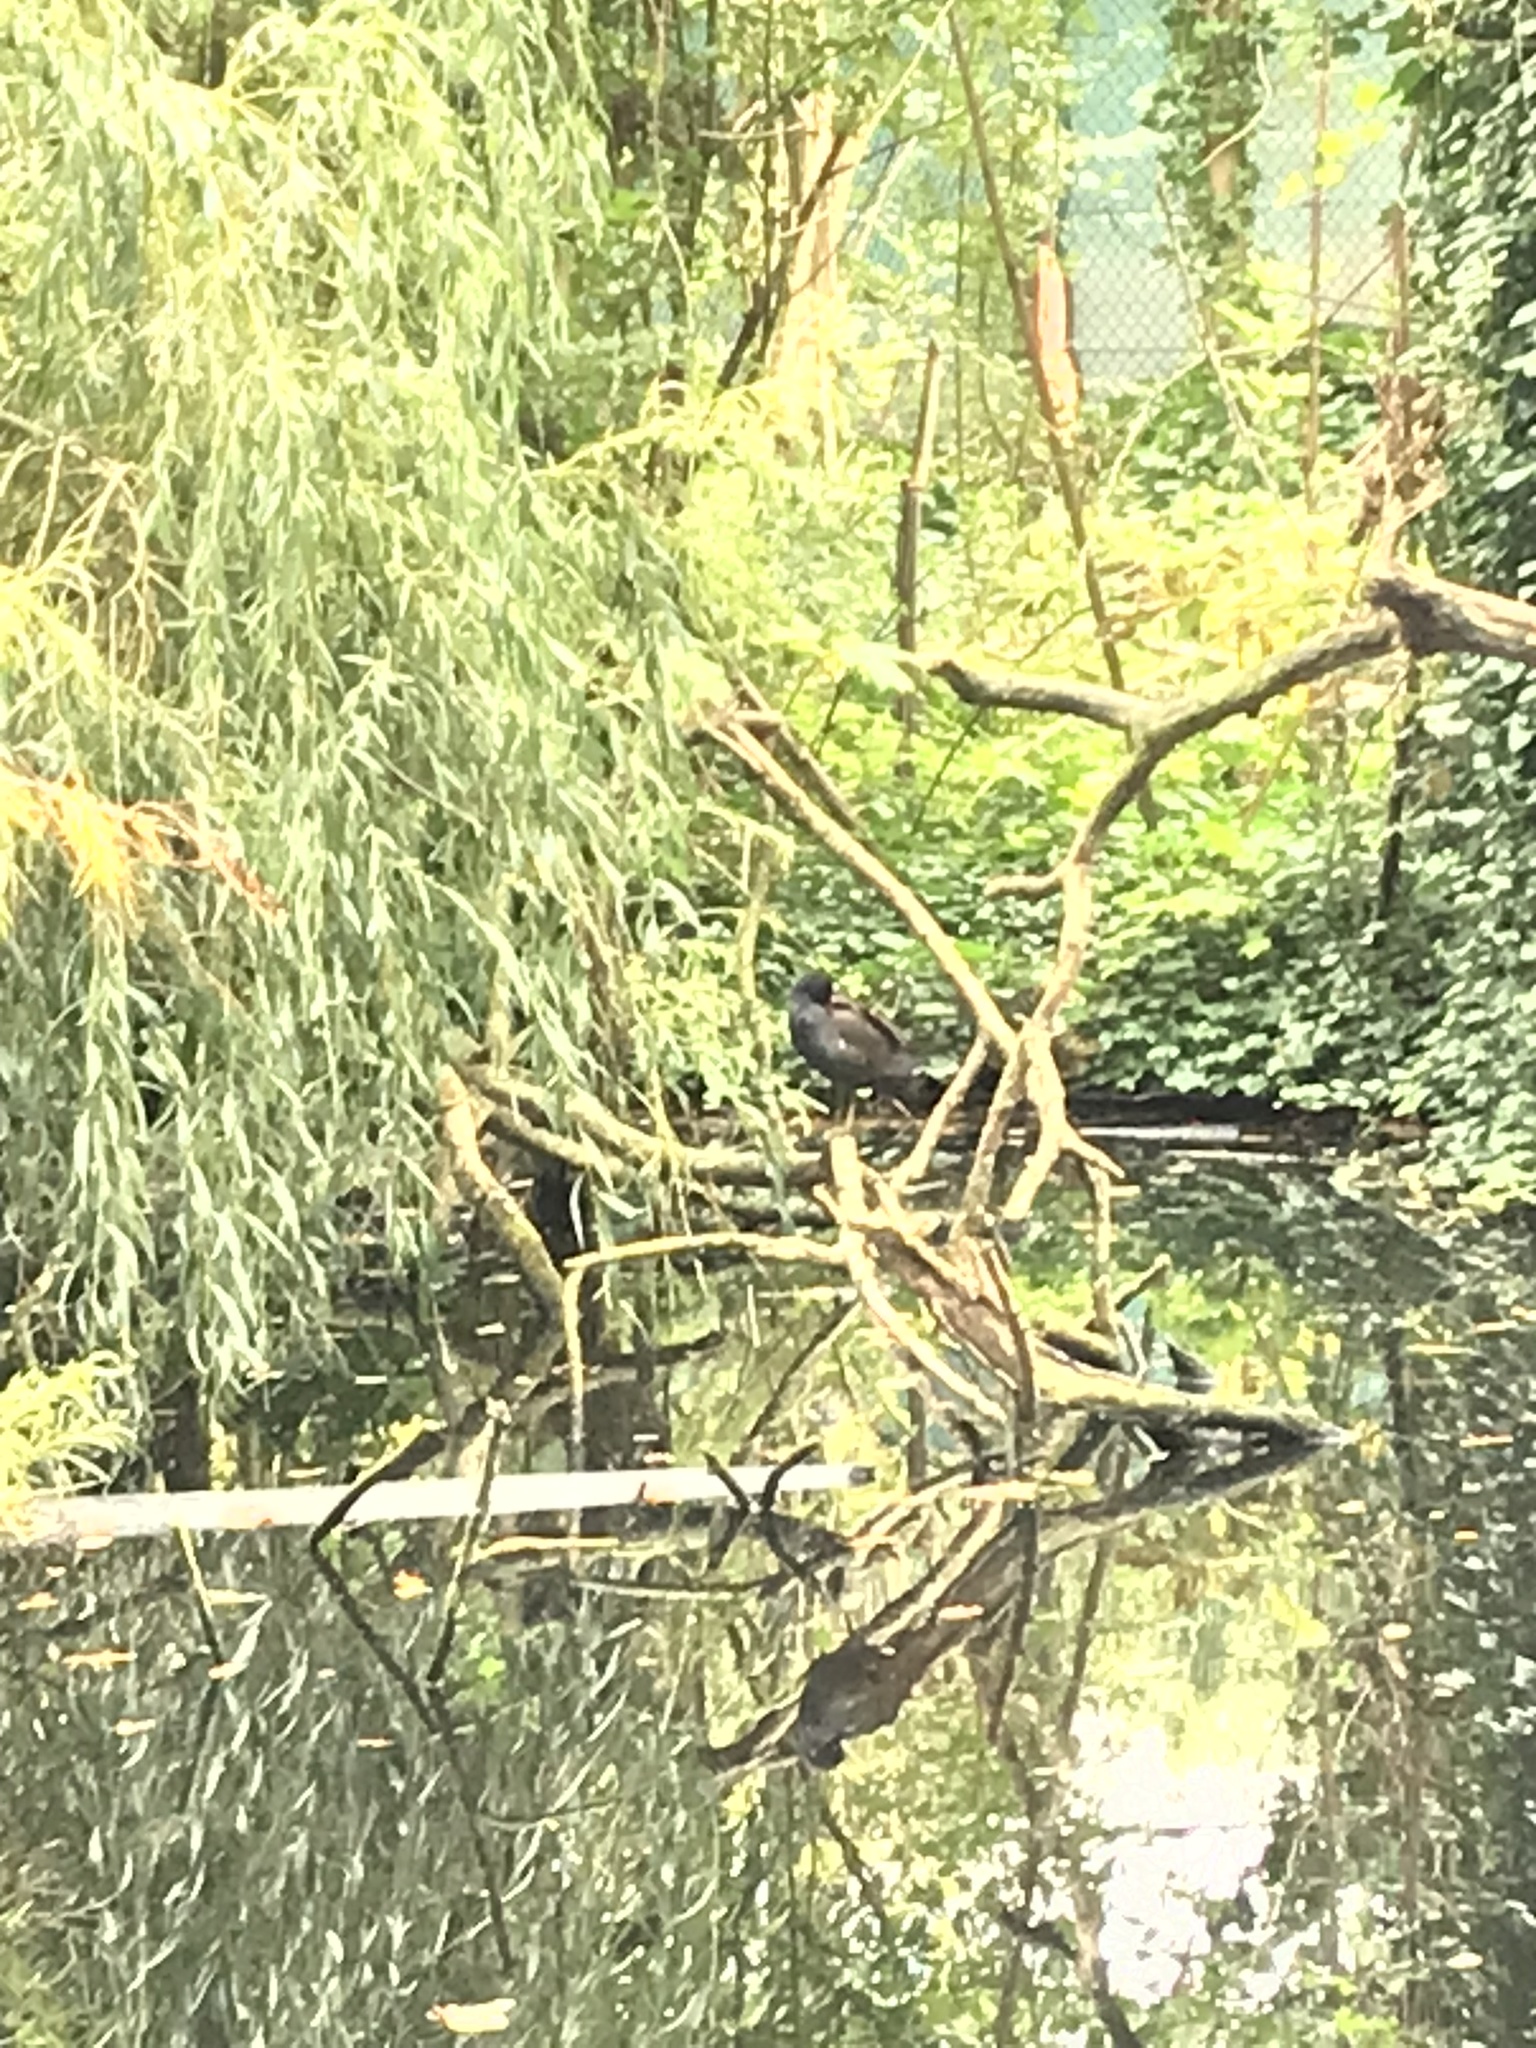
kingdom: Animalia
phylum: Chordata
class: Aves
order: Gruiformes
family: Rallidae
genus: Gallinula
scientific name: Gallinula chloropus
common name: Common moorhen
